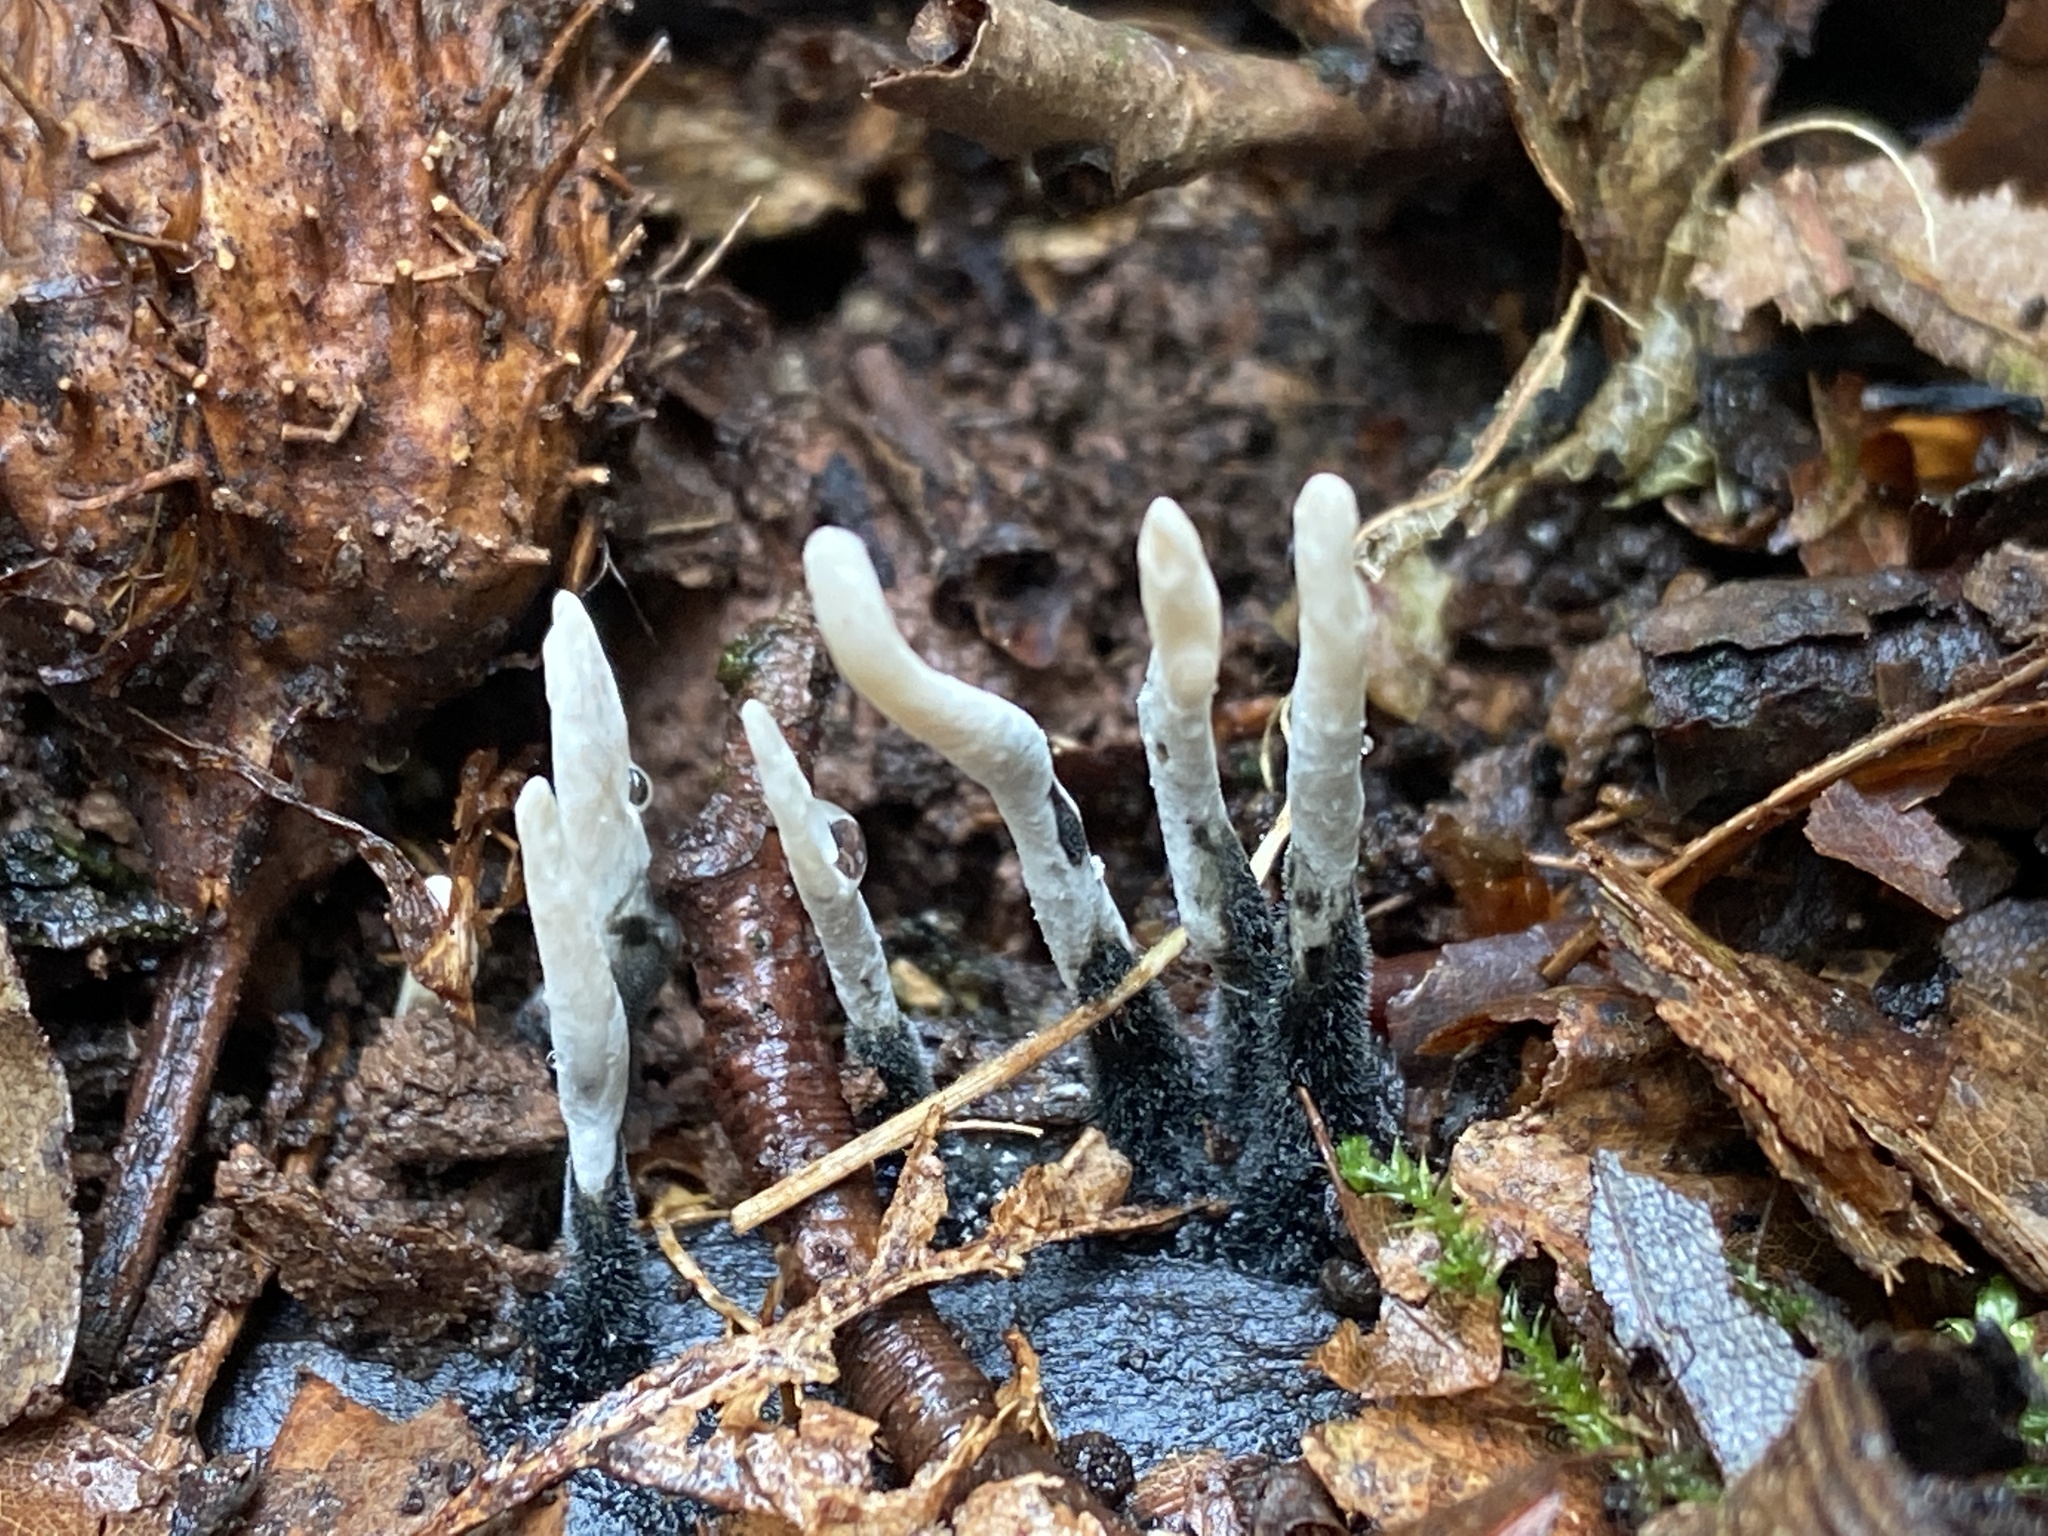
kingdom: Fungi
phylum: Ascomycota
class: Sordariomycetes
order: Xylariales
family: Xylariaceae
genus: Xylaria
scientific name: Xylaria hypoxylon
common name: Candle-snuff fungus
